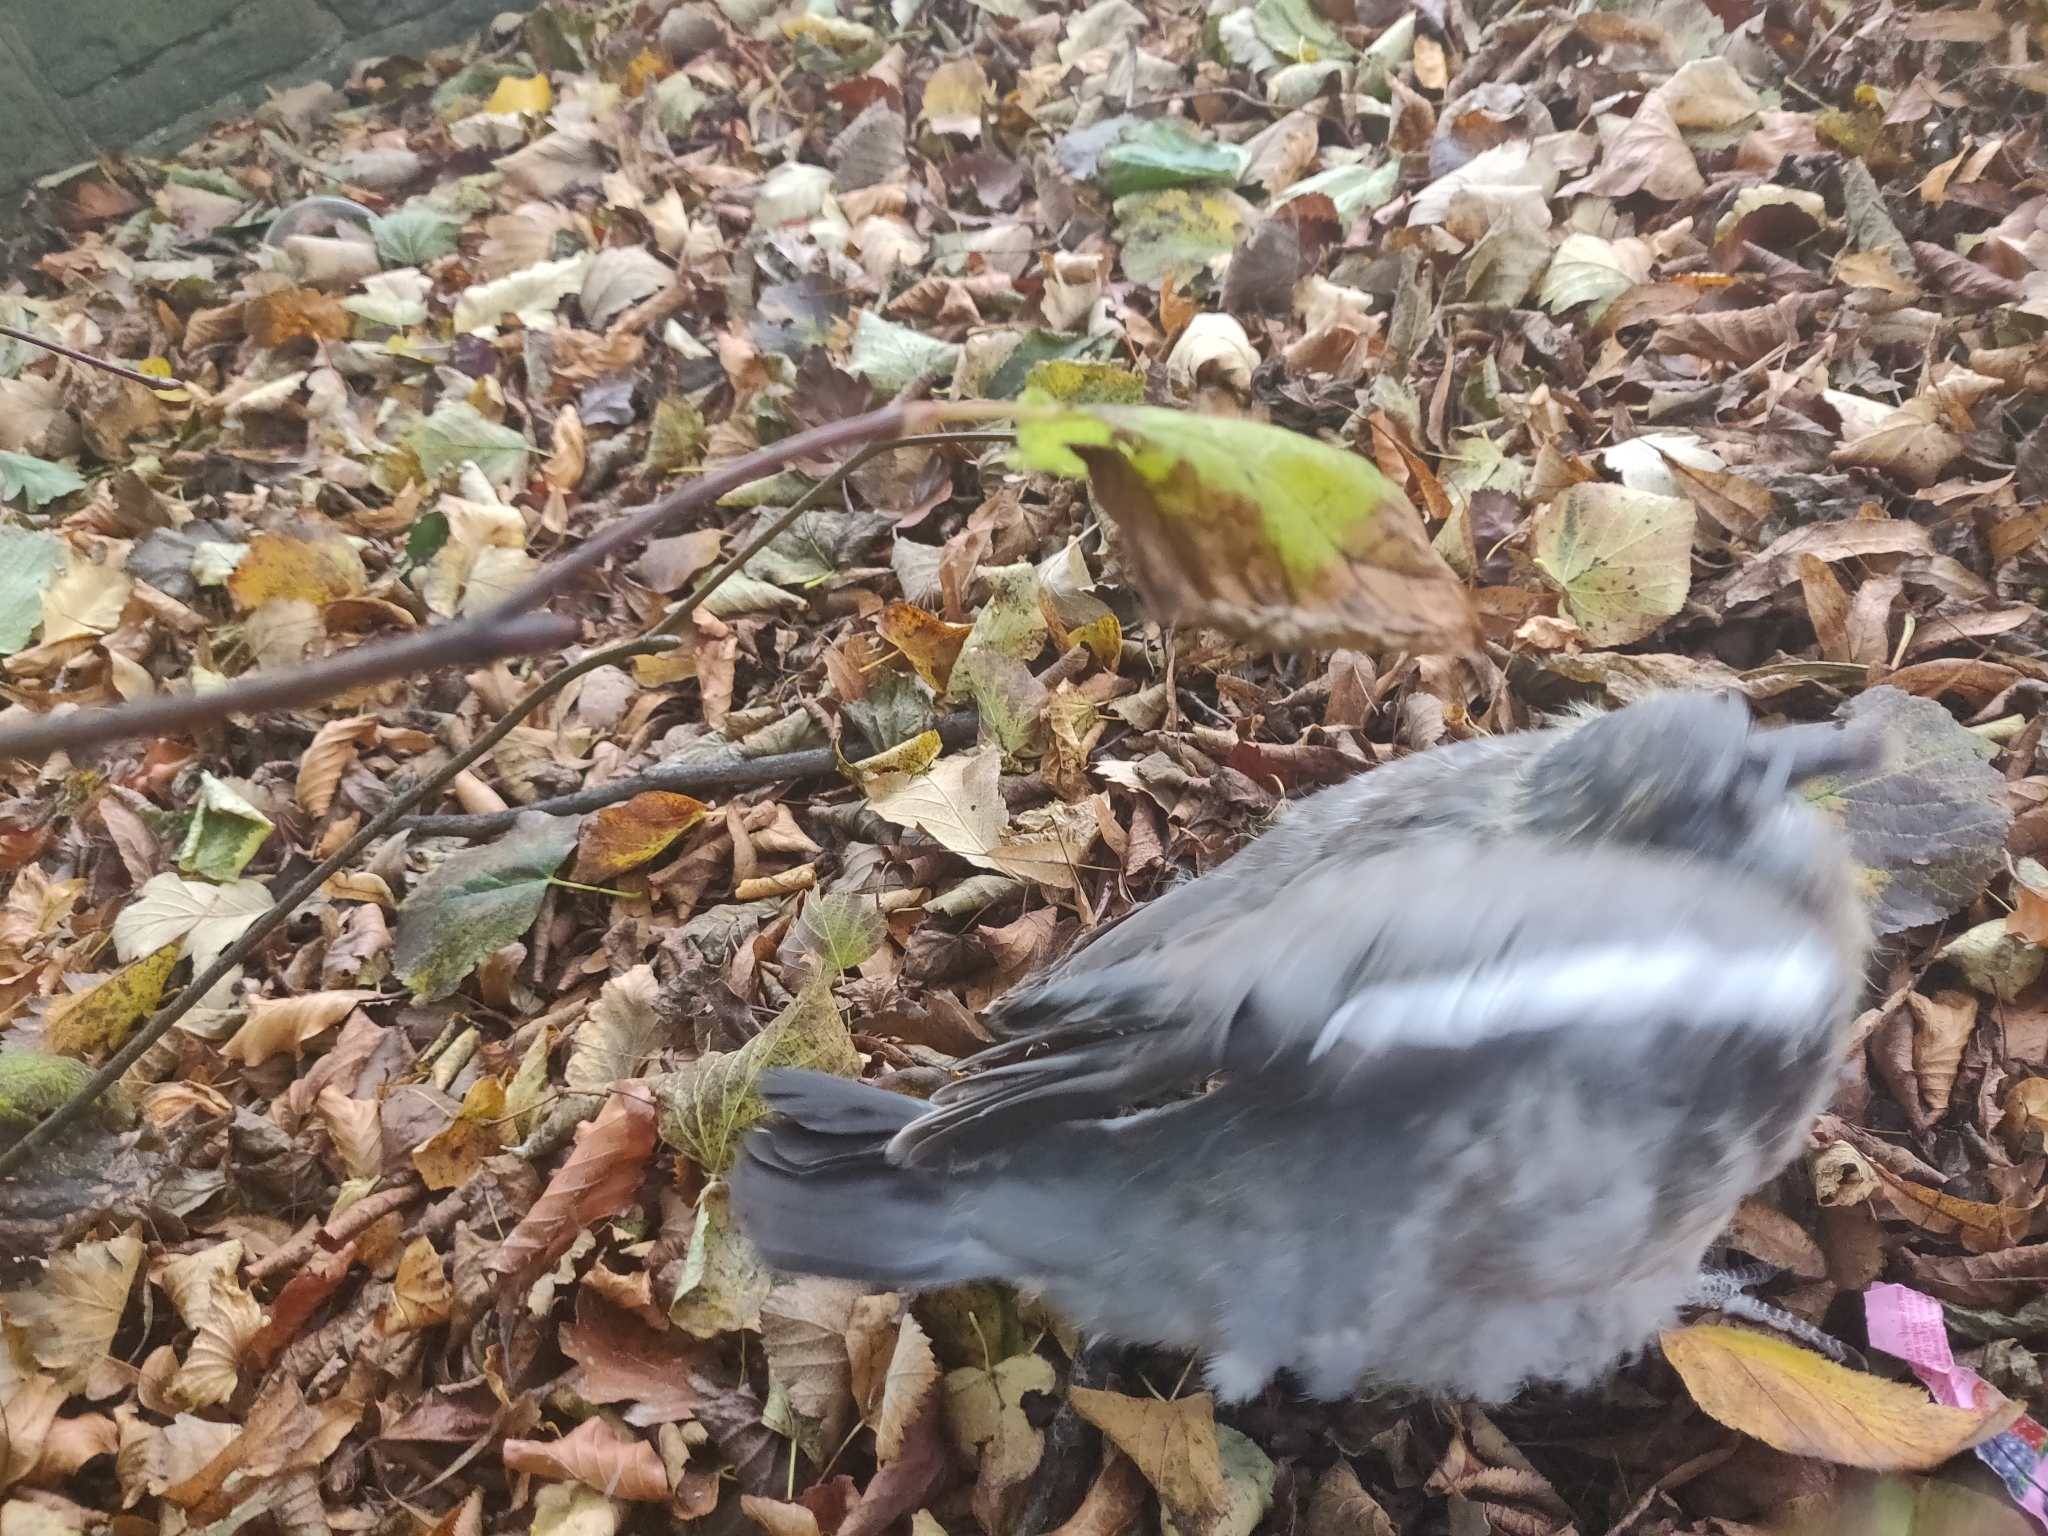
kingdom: Animalia
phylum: Chordata
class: Aves
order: Columbiformes
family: Columbidae
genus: Columba
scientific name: Columba palumbus
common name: Common wood pigeon
